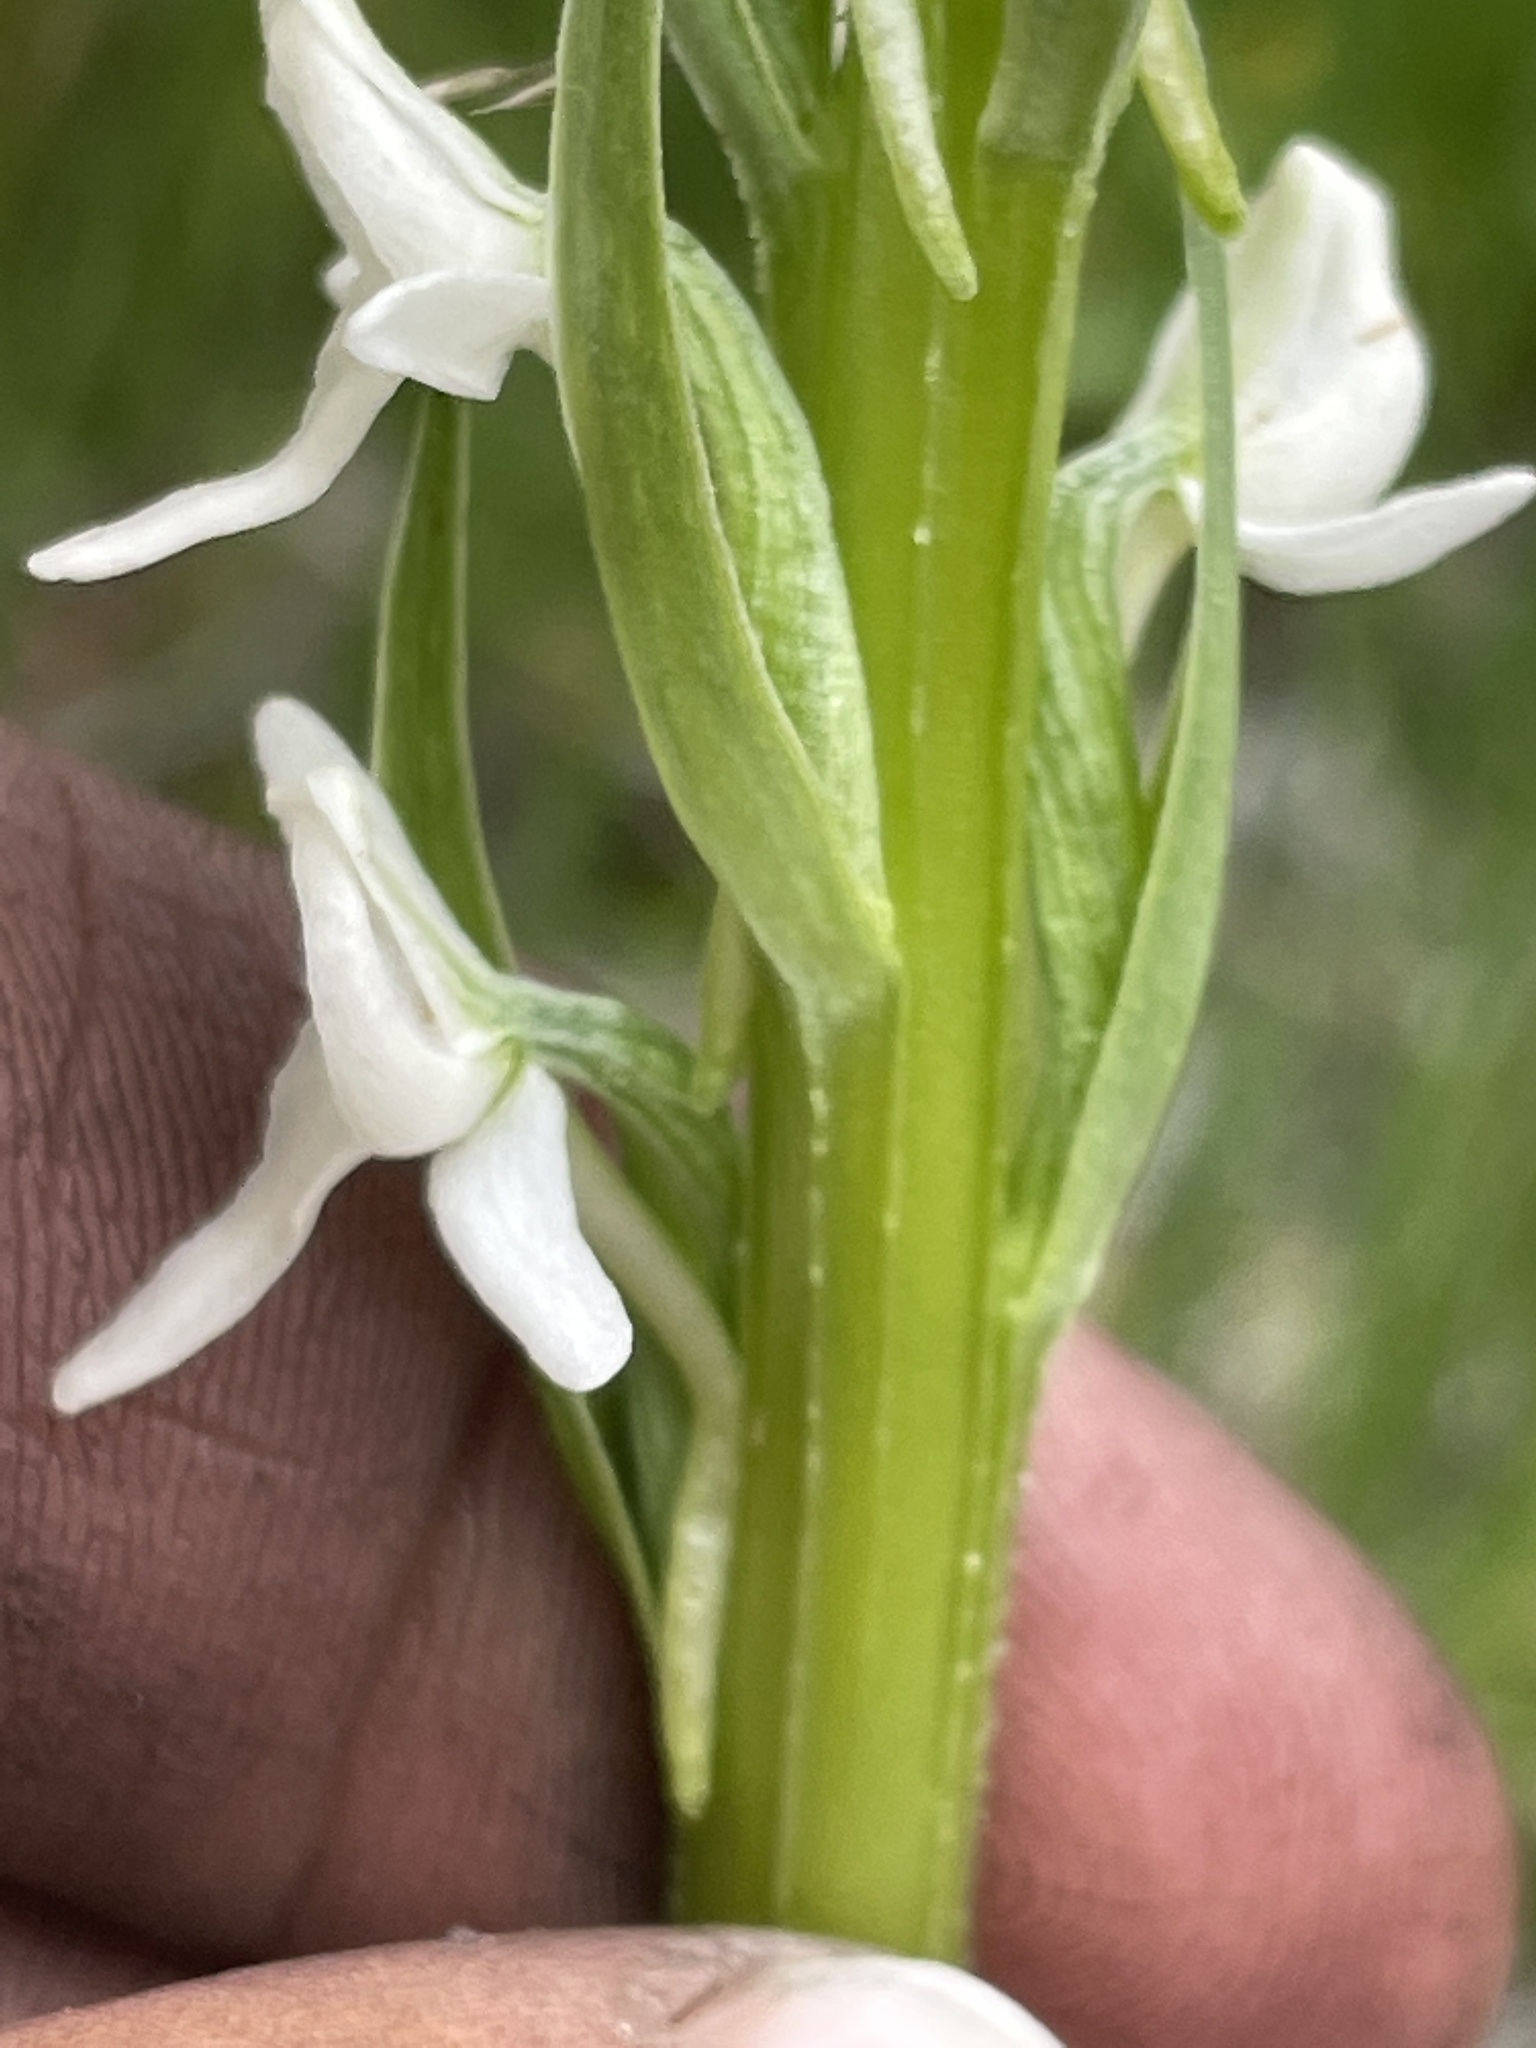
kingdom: Plantae
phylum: Tracheophyta
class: Liliopsida
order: Asparagales
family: Orchidaceae
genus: Platanthera
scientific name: Platanthera dilatata
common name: Bog candles
